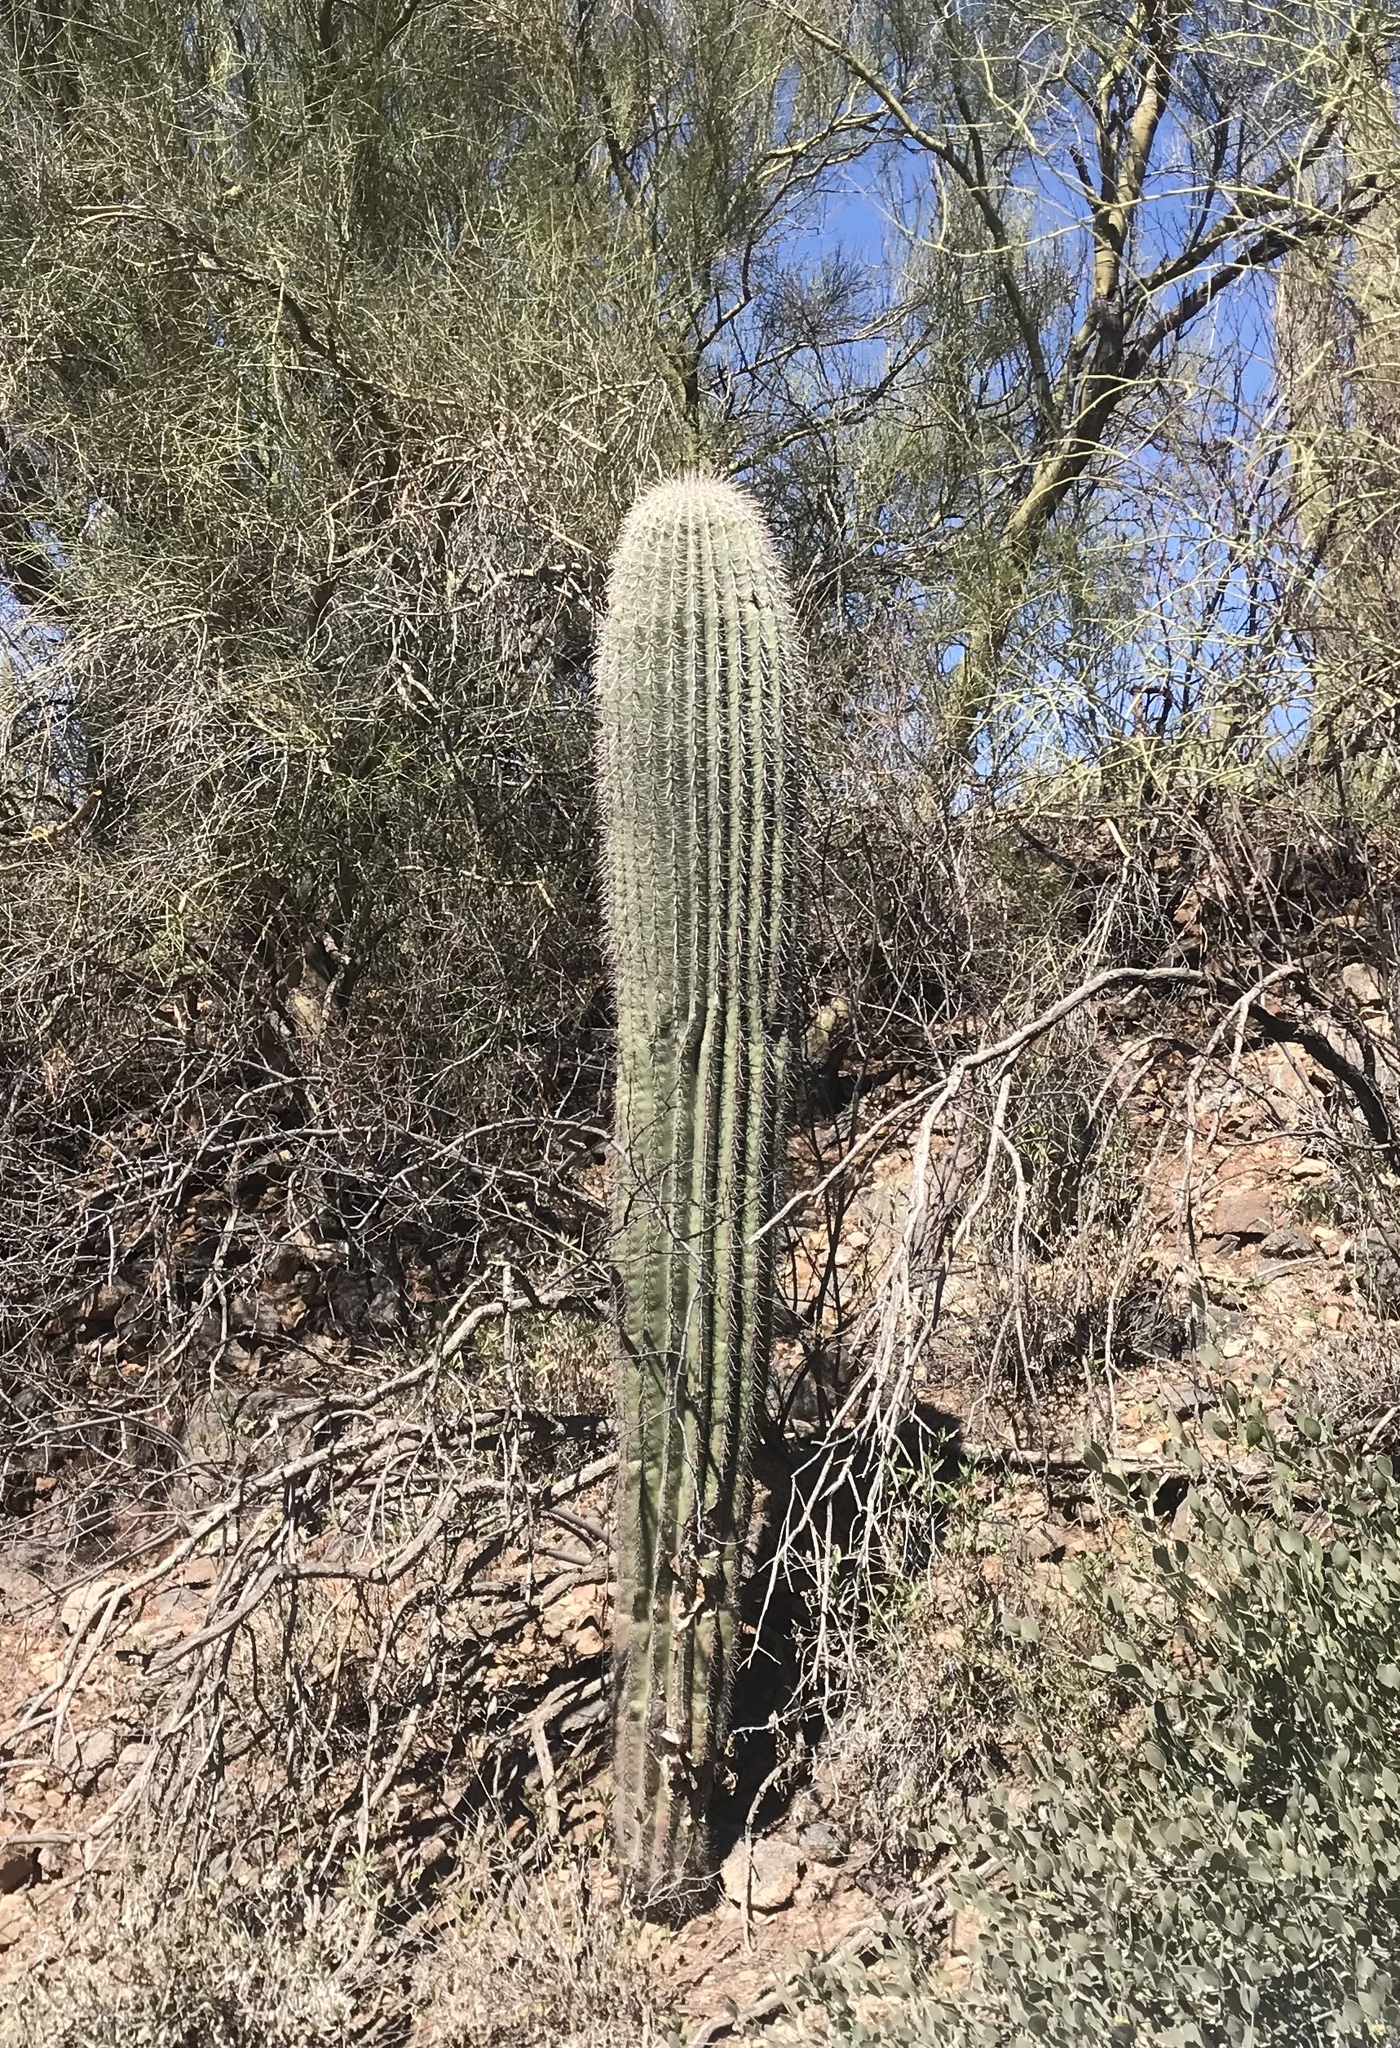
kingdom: Plantae
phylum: Tracheophyta
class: Magnoliopsida
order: Caryophyllales
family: Cactaceae
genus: Carnegiea
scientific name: Carnegiea gigantea
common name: Saguaro
